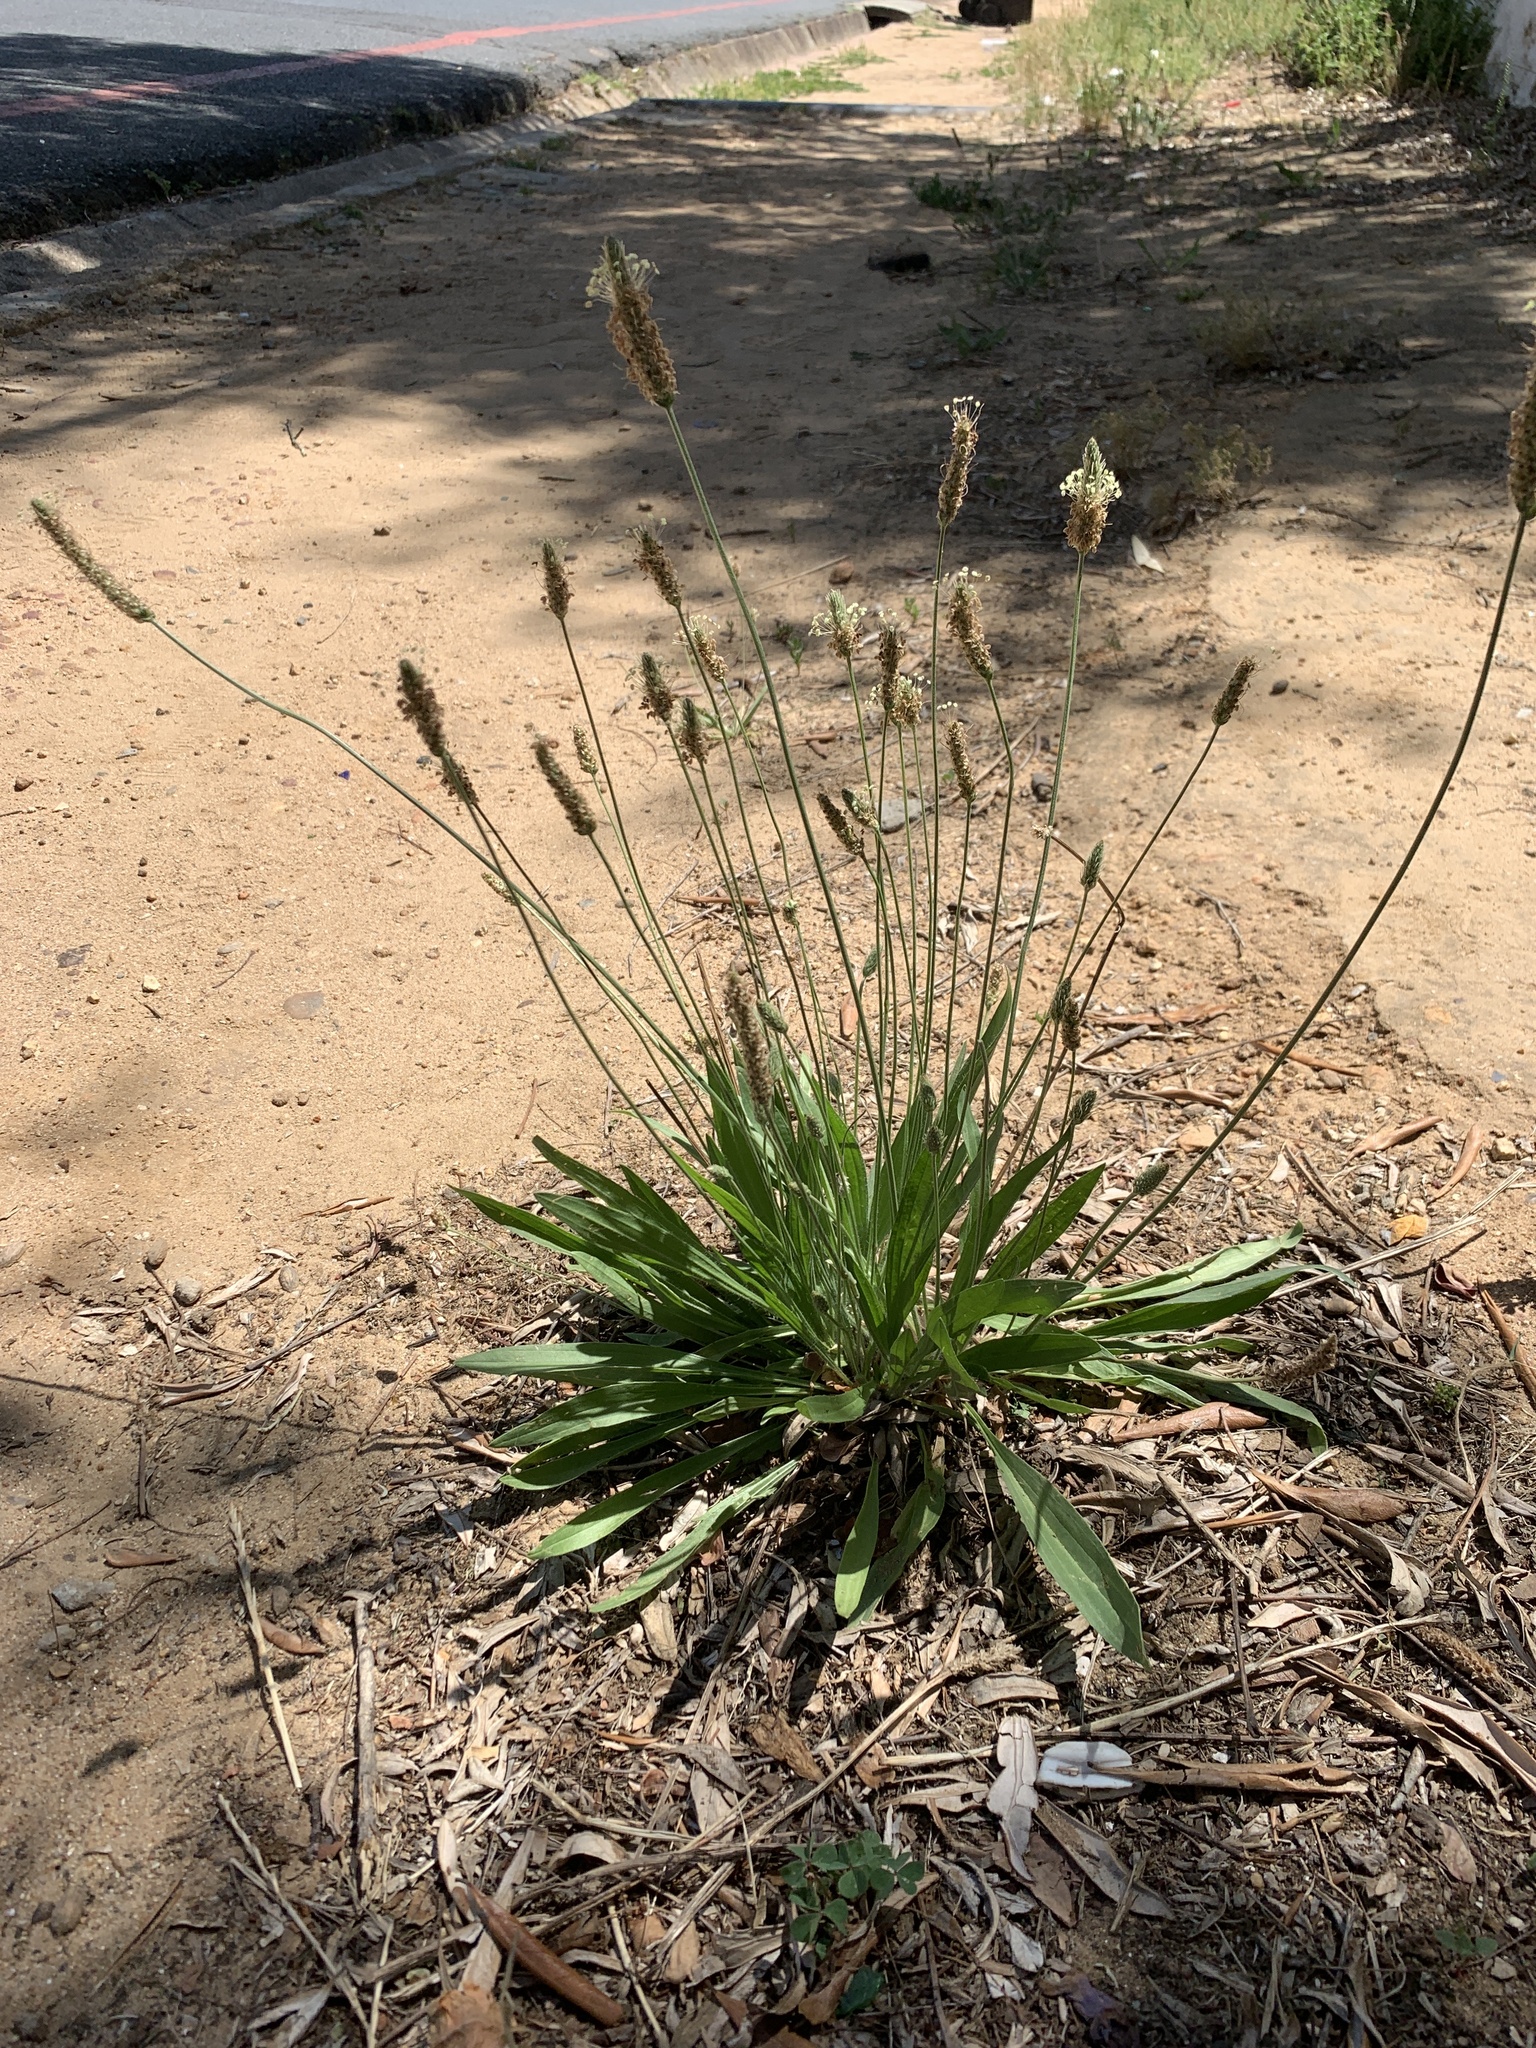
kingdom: Plantae
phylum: Tracheophyta
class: Magnoliopsida
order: Lamiales
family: Plantaginaceae
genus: Plantago
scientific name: Plantago lanceolata
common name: Ribwort plantain
